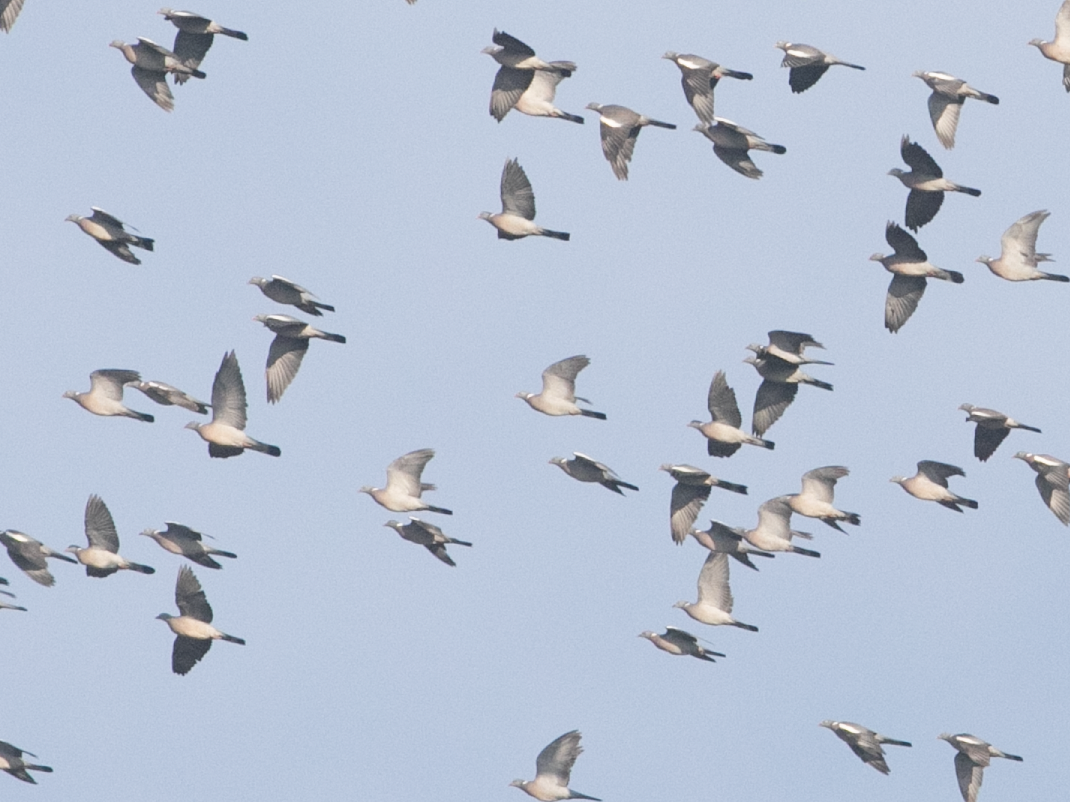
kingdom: Animalia
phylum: Chordata
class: Aves
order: Columbiformes
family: Columbidae
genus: Columba
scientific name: Columba palumbus
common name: Common wood pigeon
